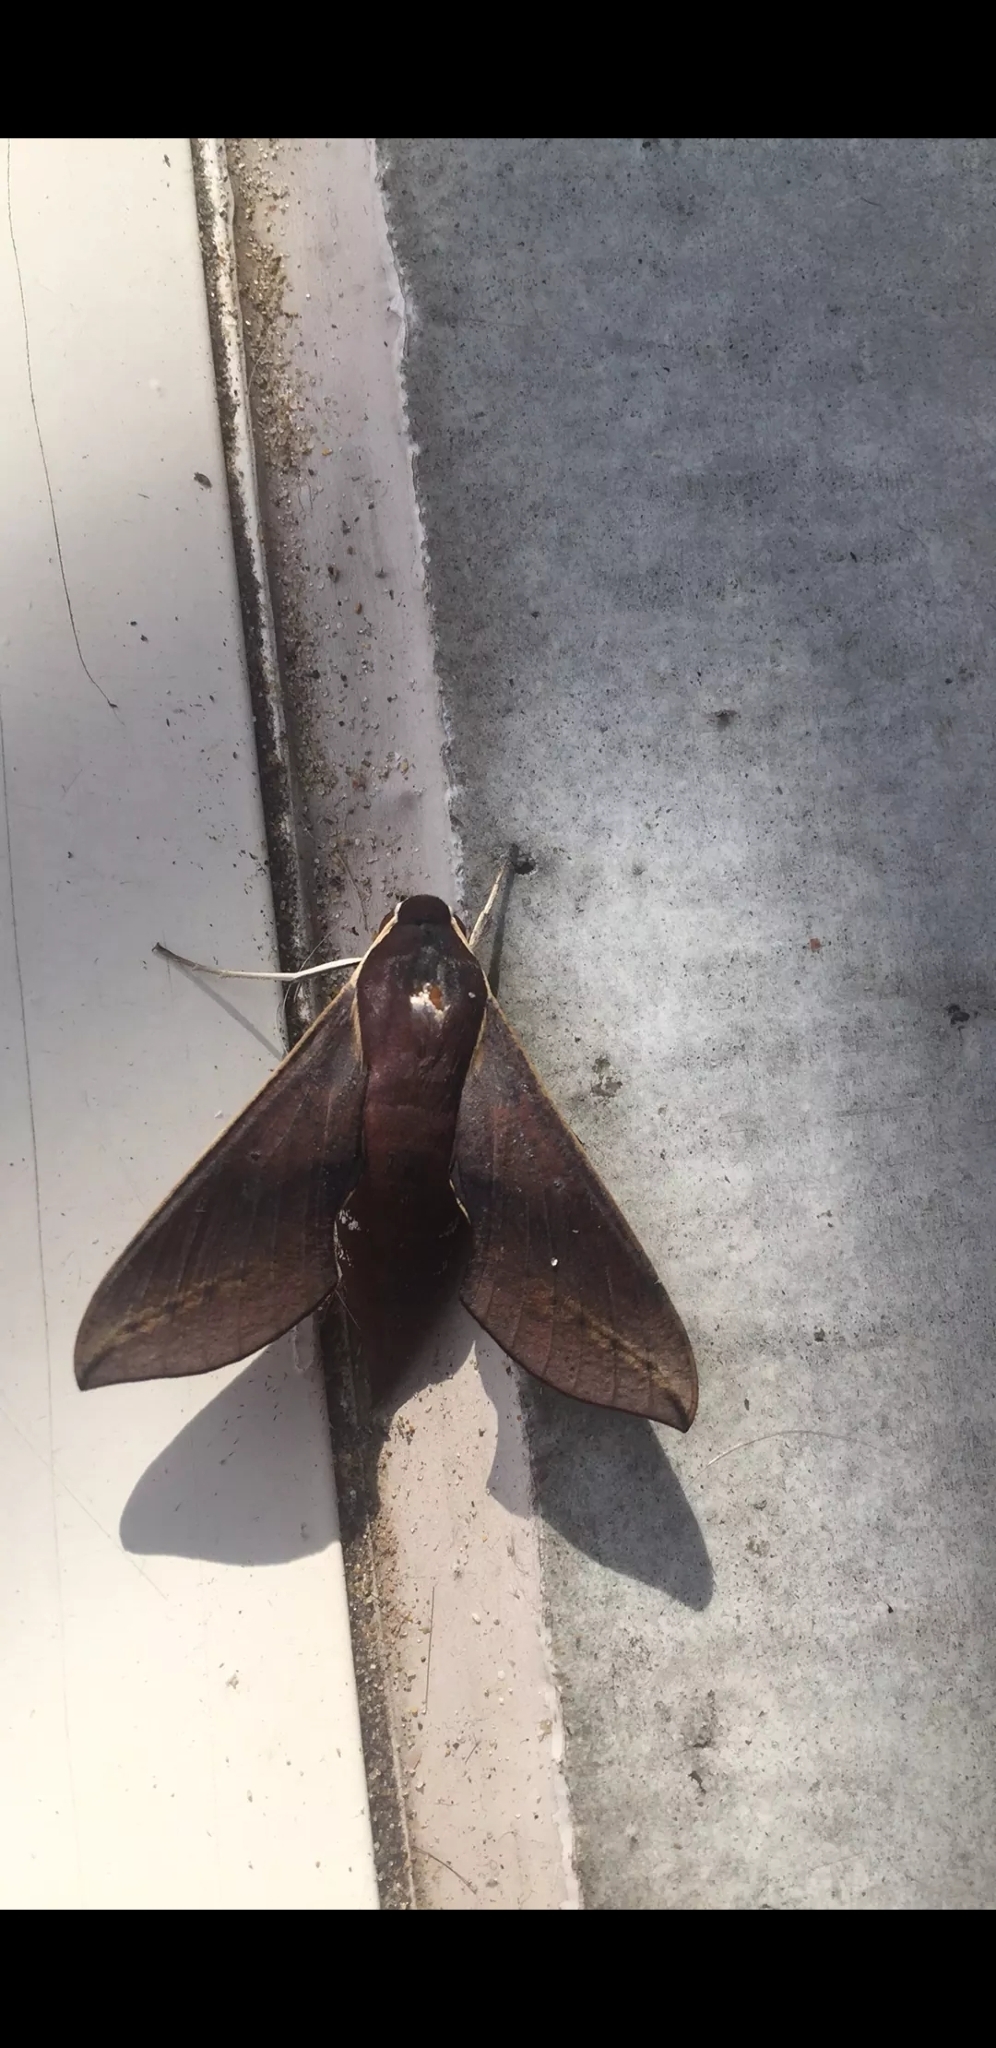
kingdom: Animalia
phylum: Arthropoda
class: Insecta
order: Lepidoptera
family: Sphingidae
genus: Hippotion
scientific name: Hippotion scrofa
